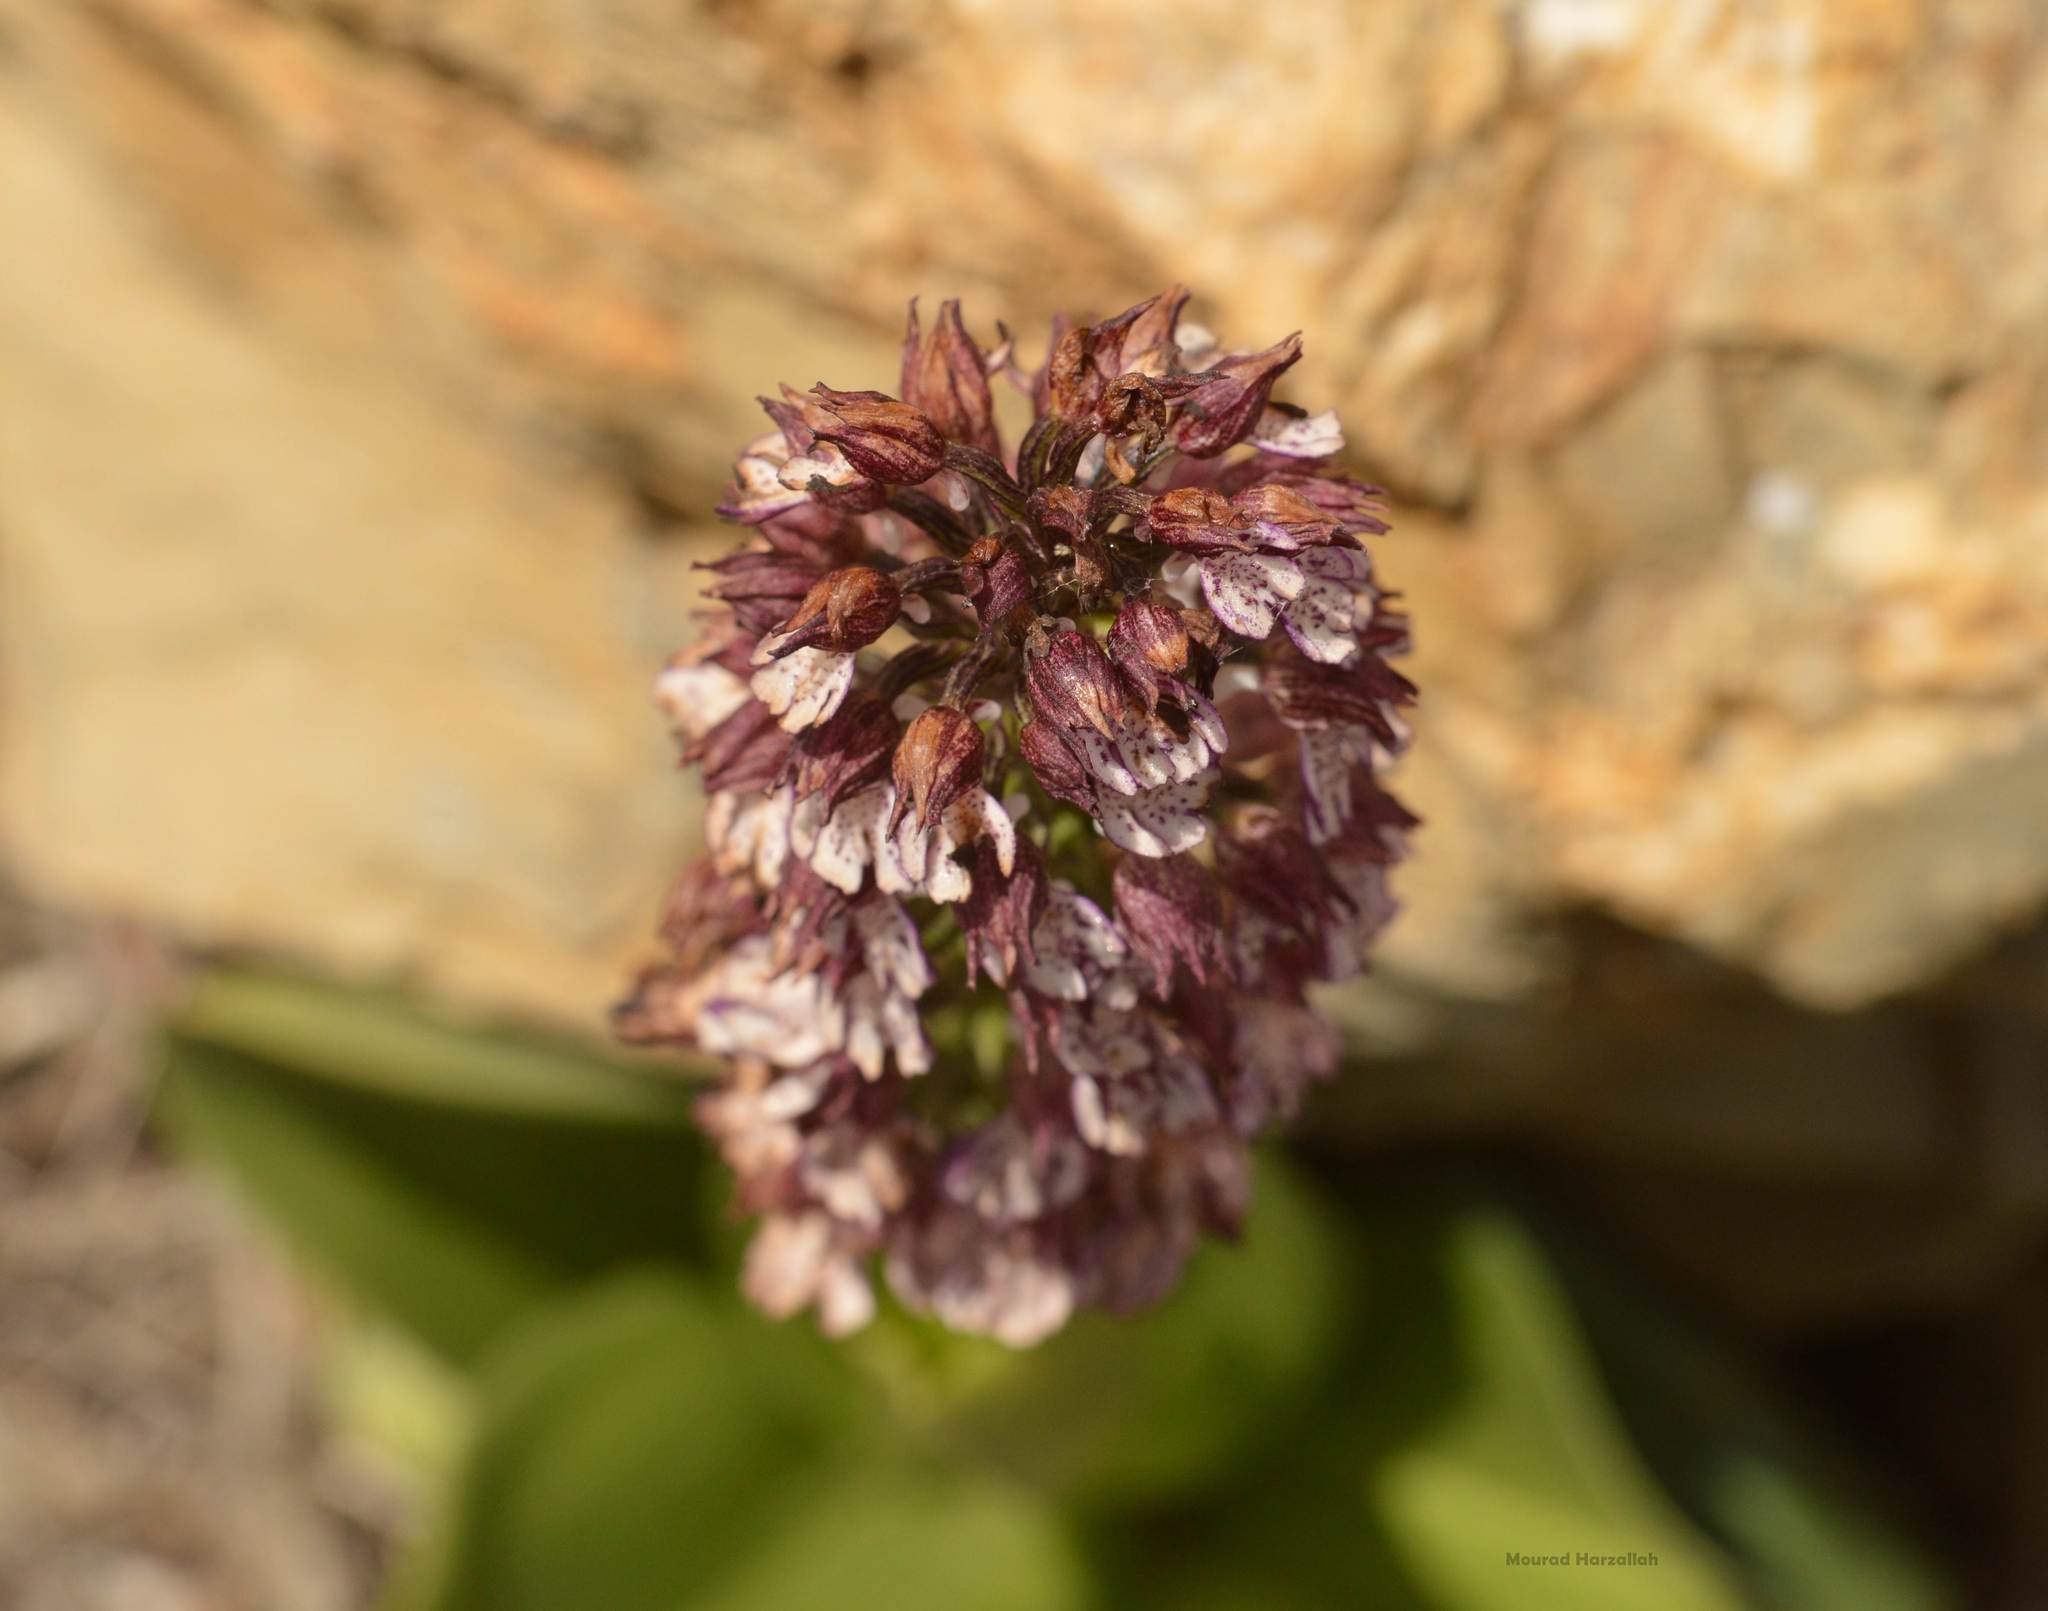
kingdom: Plantae
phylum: Tracheophyta
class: Liliopsida
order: Asparagales
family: Orchidaceae
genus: Orchis
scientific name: Orchis purpurea
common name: Lady orchid
